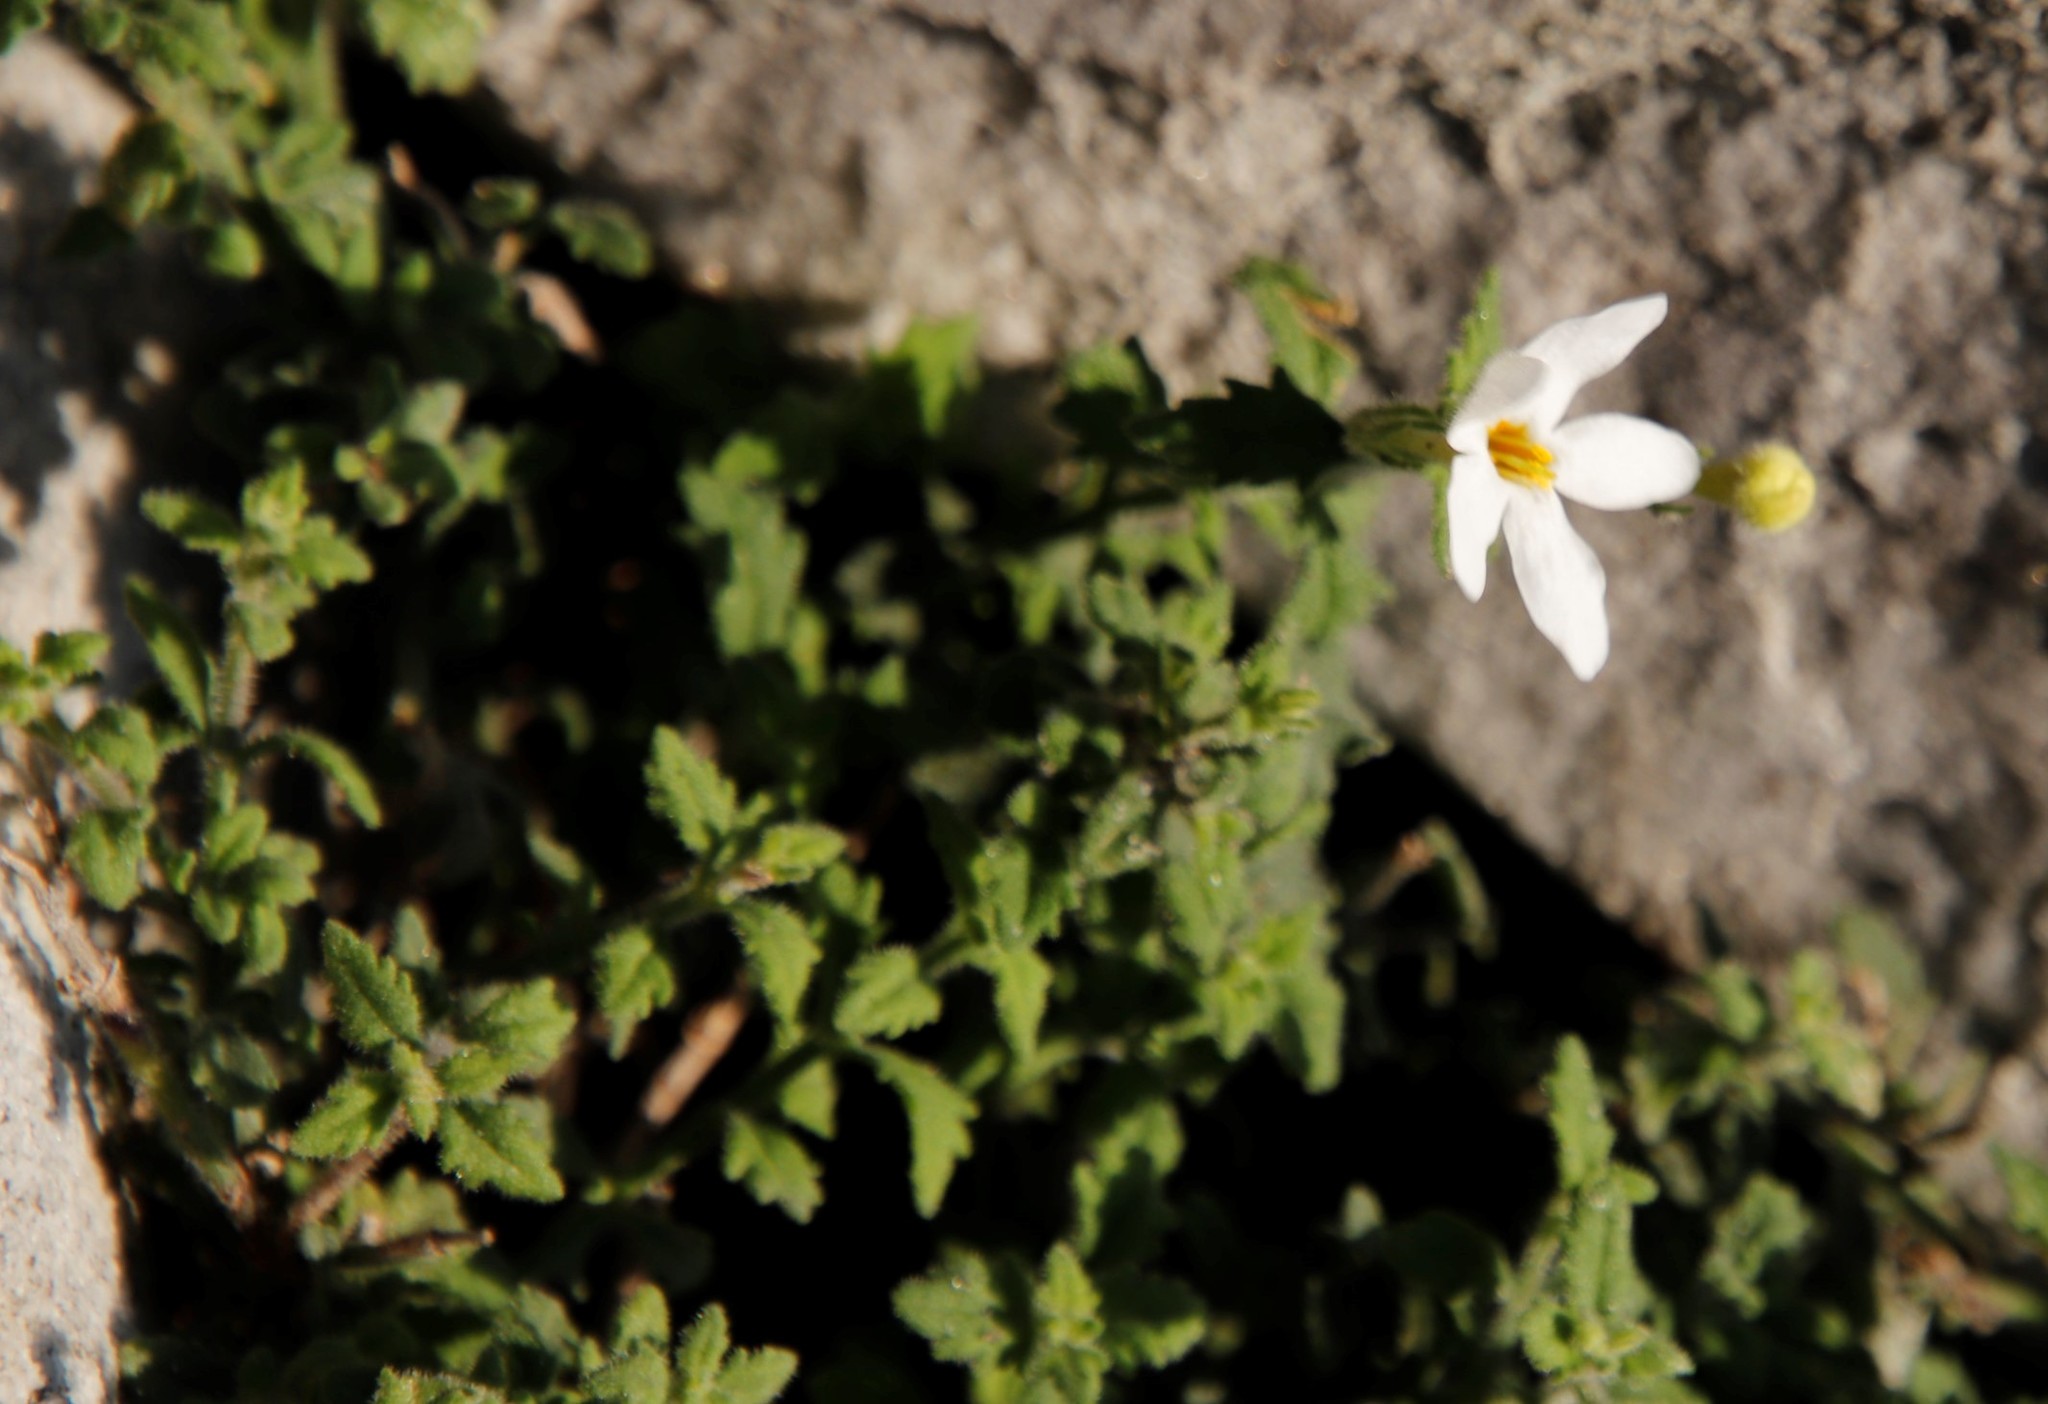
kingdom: Plantae
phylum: Tracheophyta
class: Magnoliopsida
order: Lamiales
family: Scrophulariaceae
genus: Chaenostoma
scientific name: Chaenostoma hispidum
